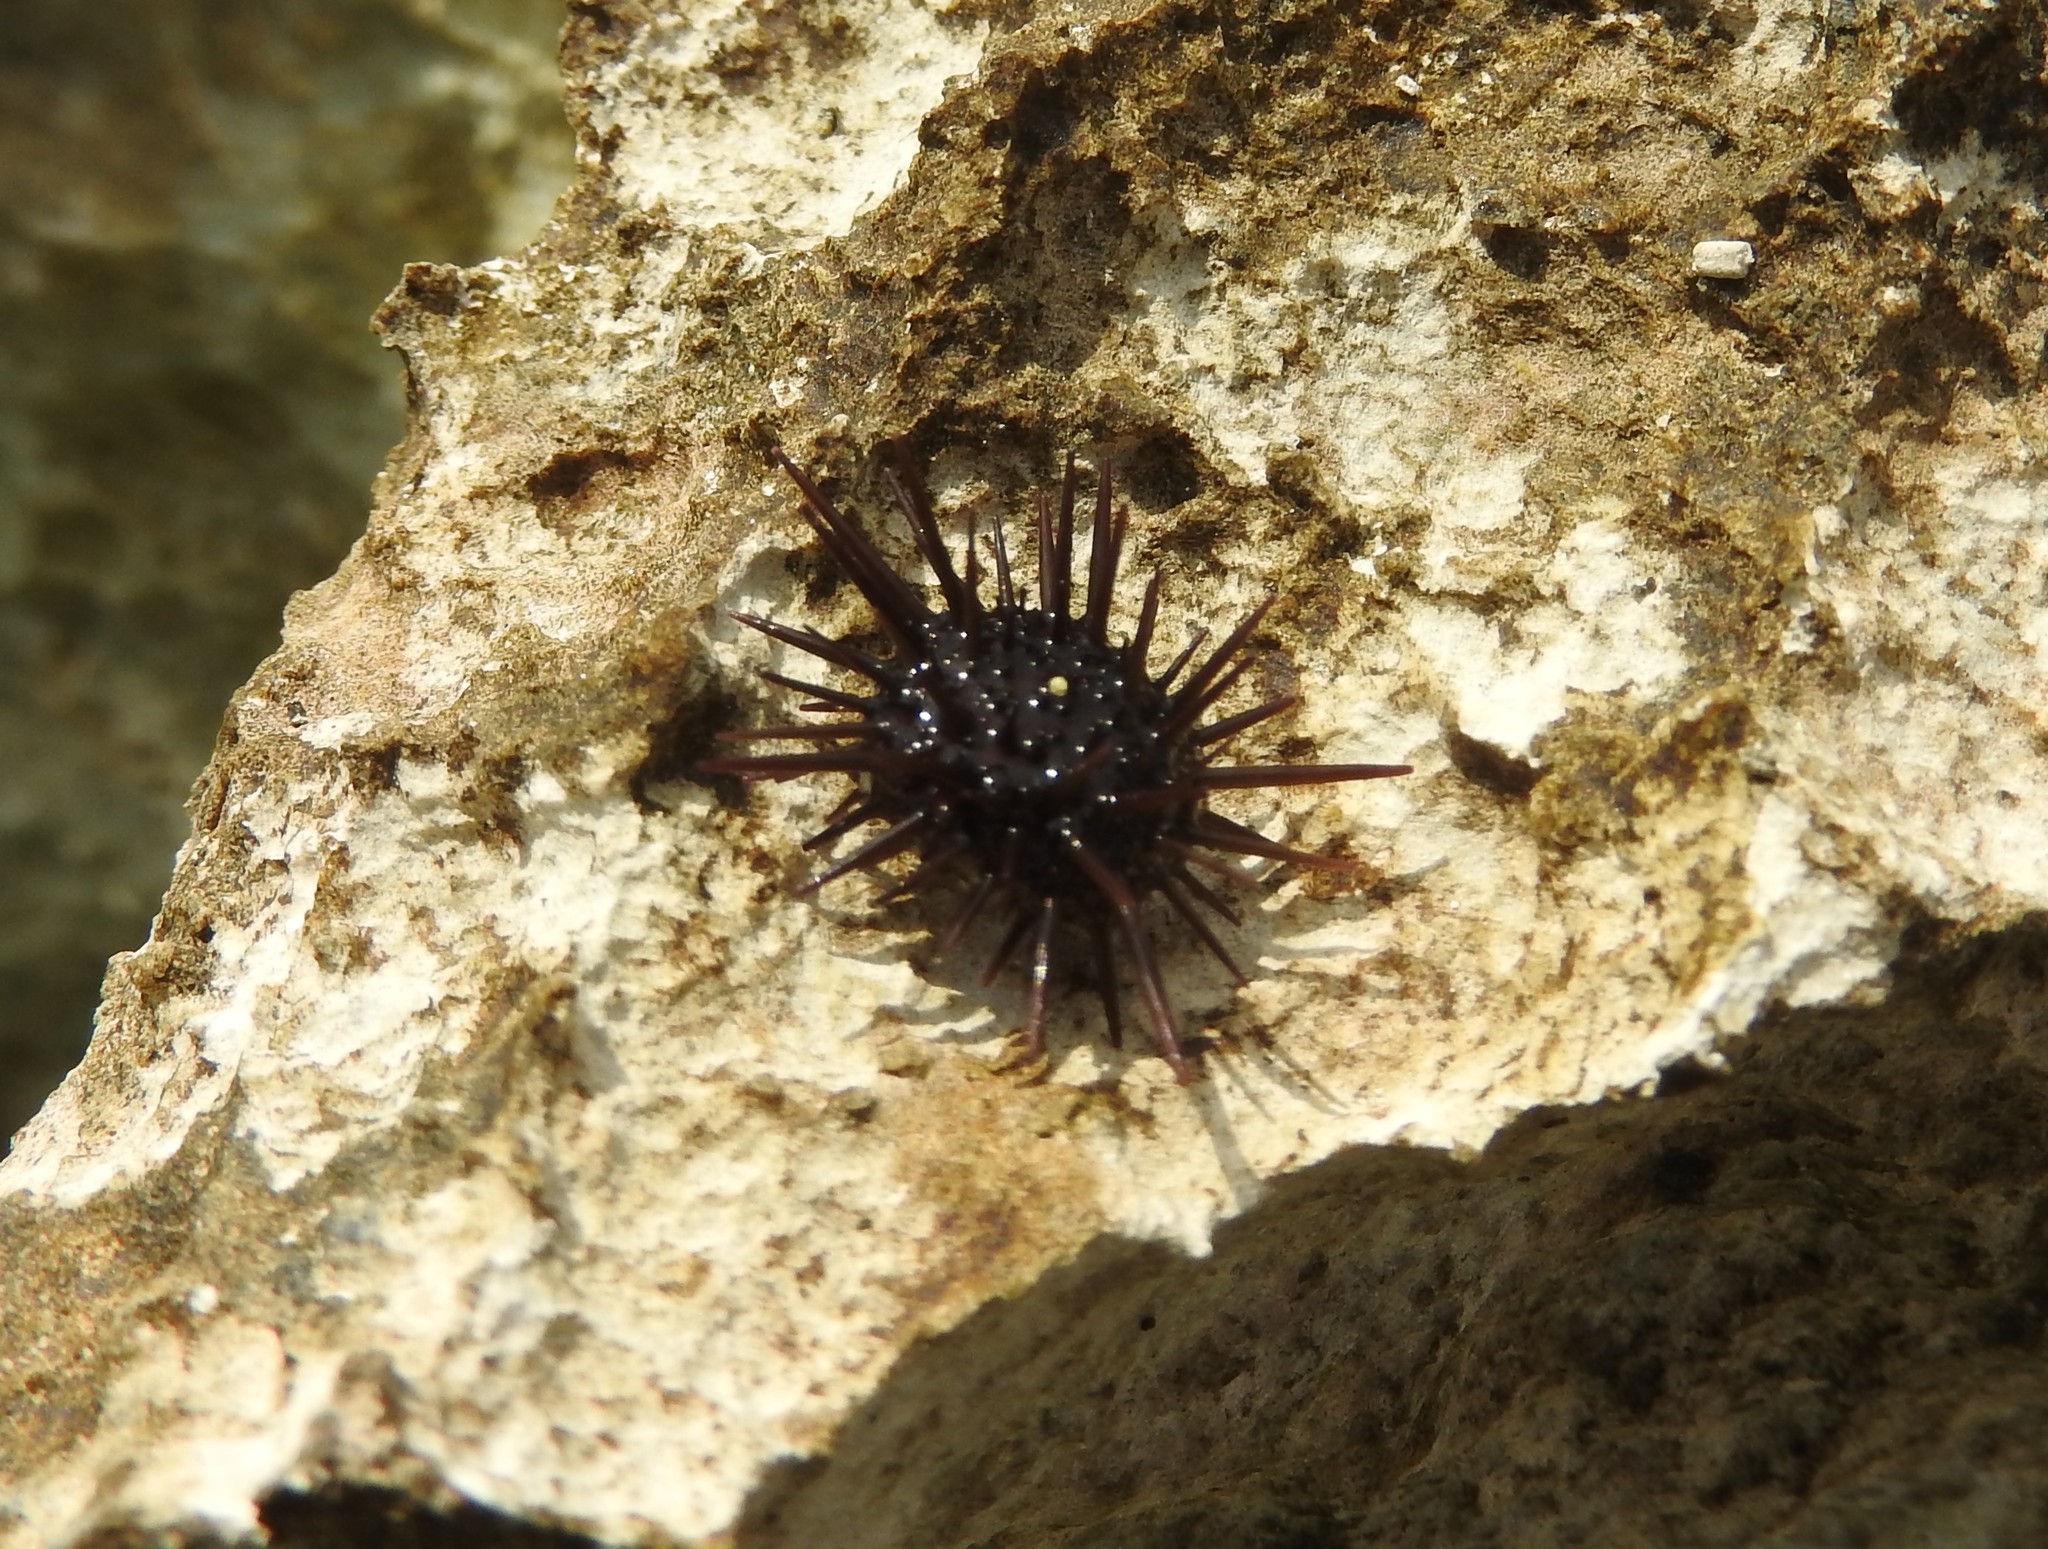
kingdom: Animalia
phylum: Echinodermata
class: Echinoidea
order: Camarodonta
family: Echinometridae
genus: Echinometra
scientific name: Echinometra lucunter
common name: Rock urchin
